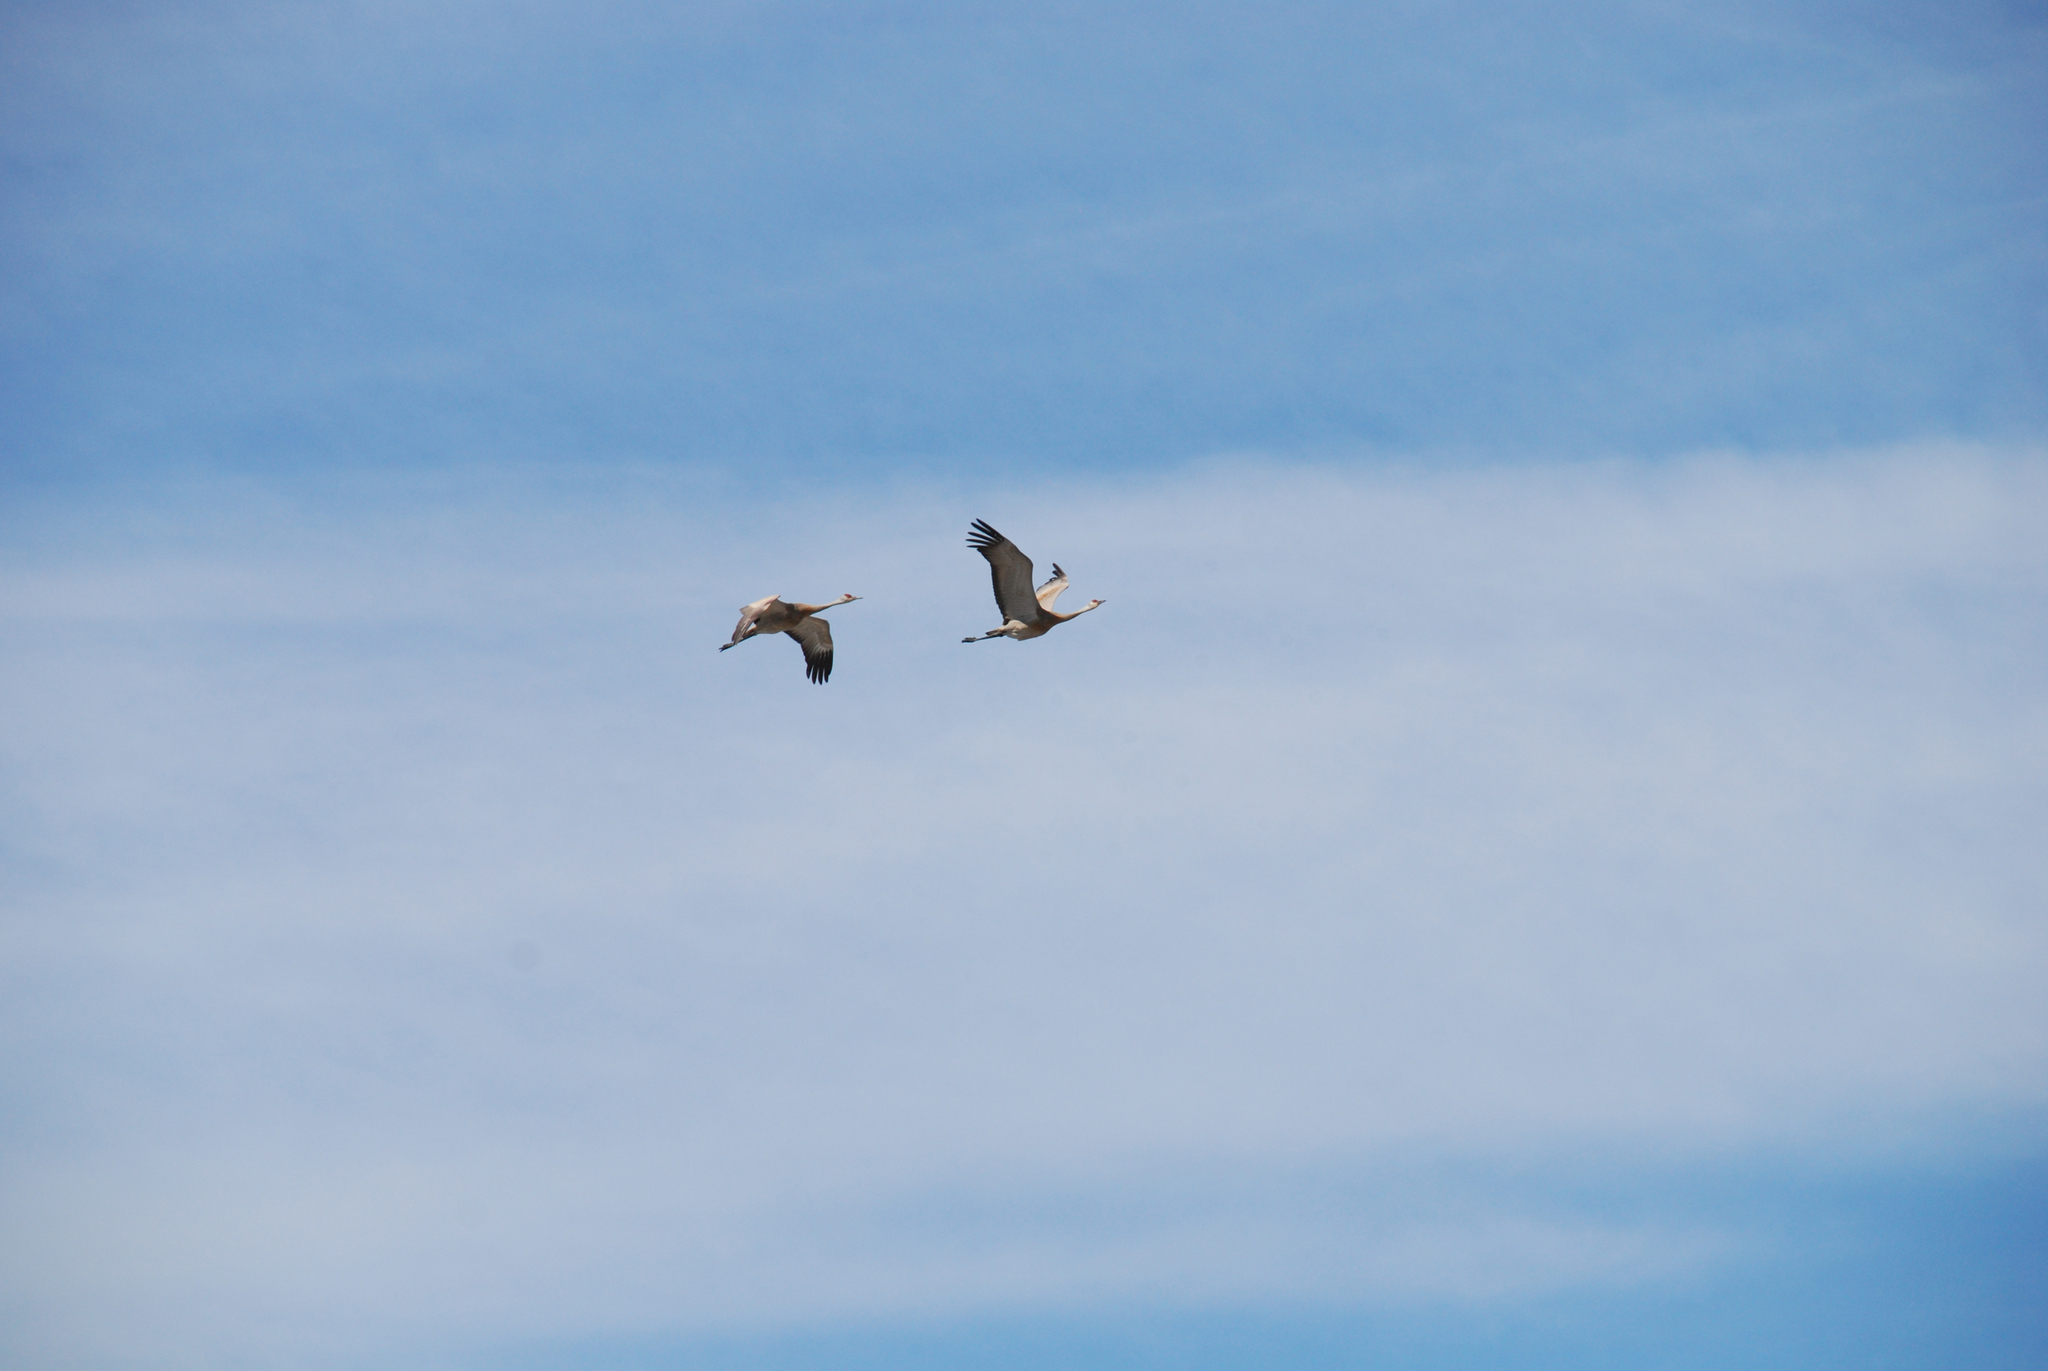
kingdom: Animalia
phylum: Chordata
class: Aves
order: Gruiformes
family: Gruidae
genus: Grus
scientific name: Grus canadensis
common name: Sandhill crane
